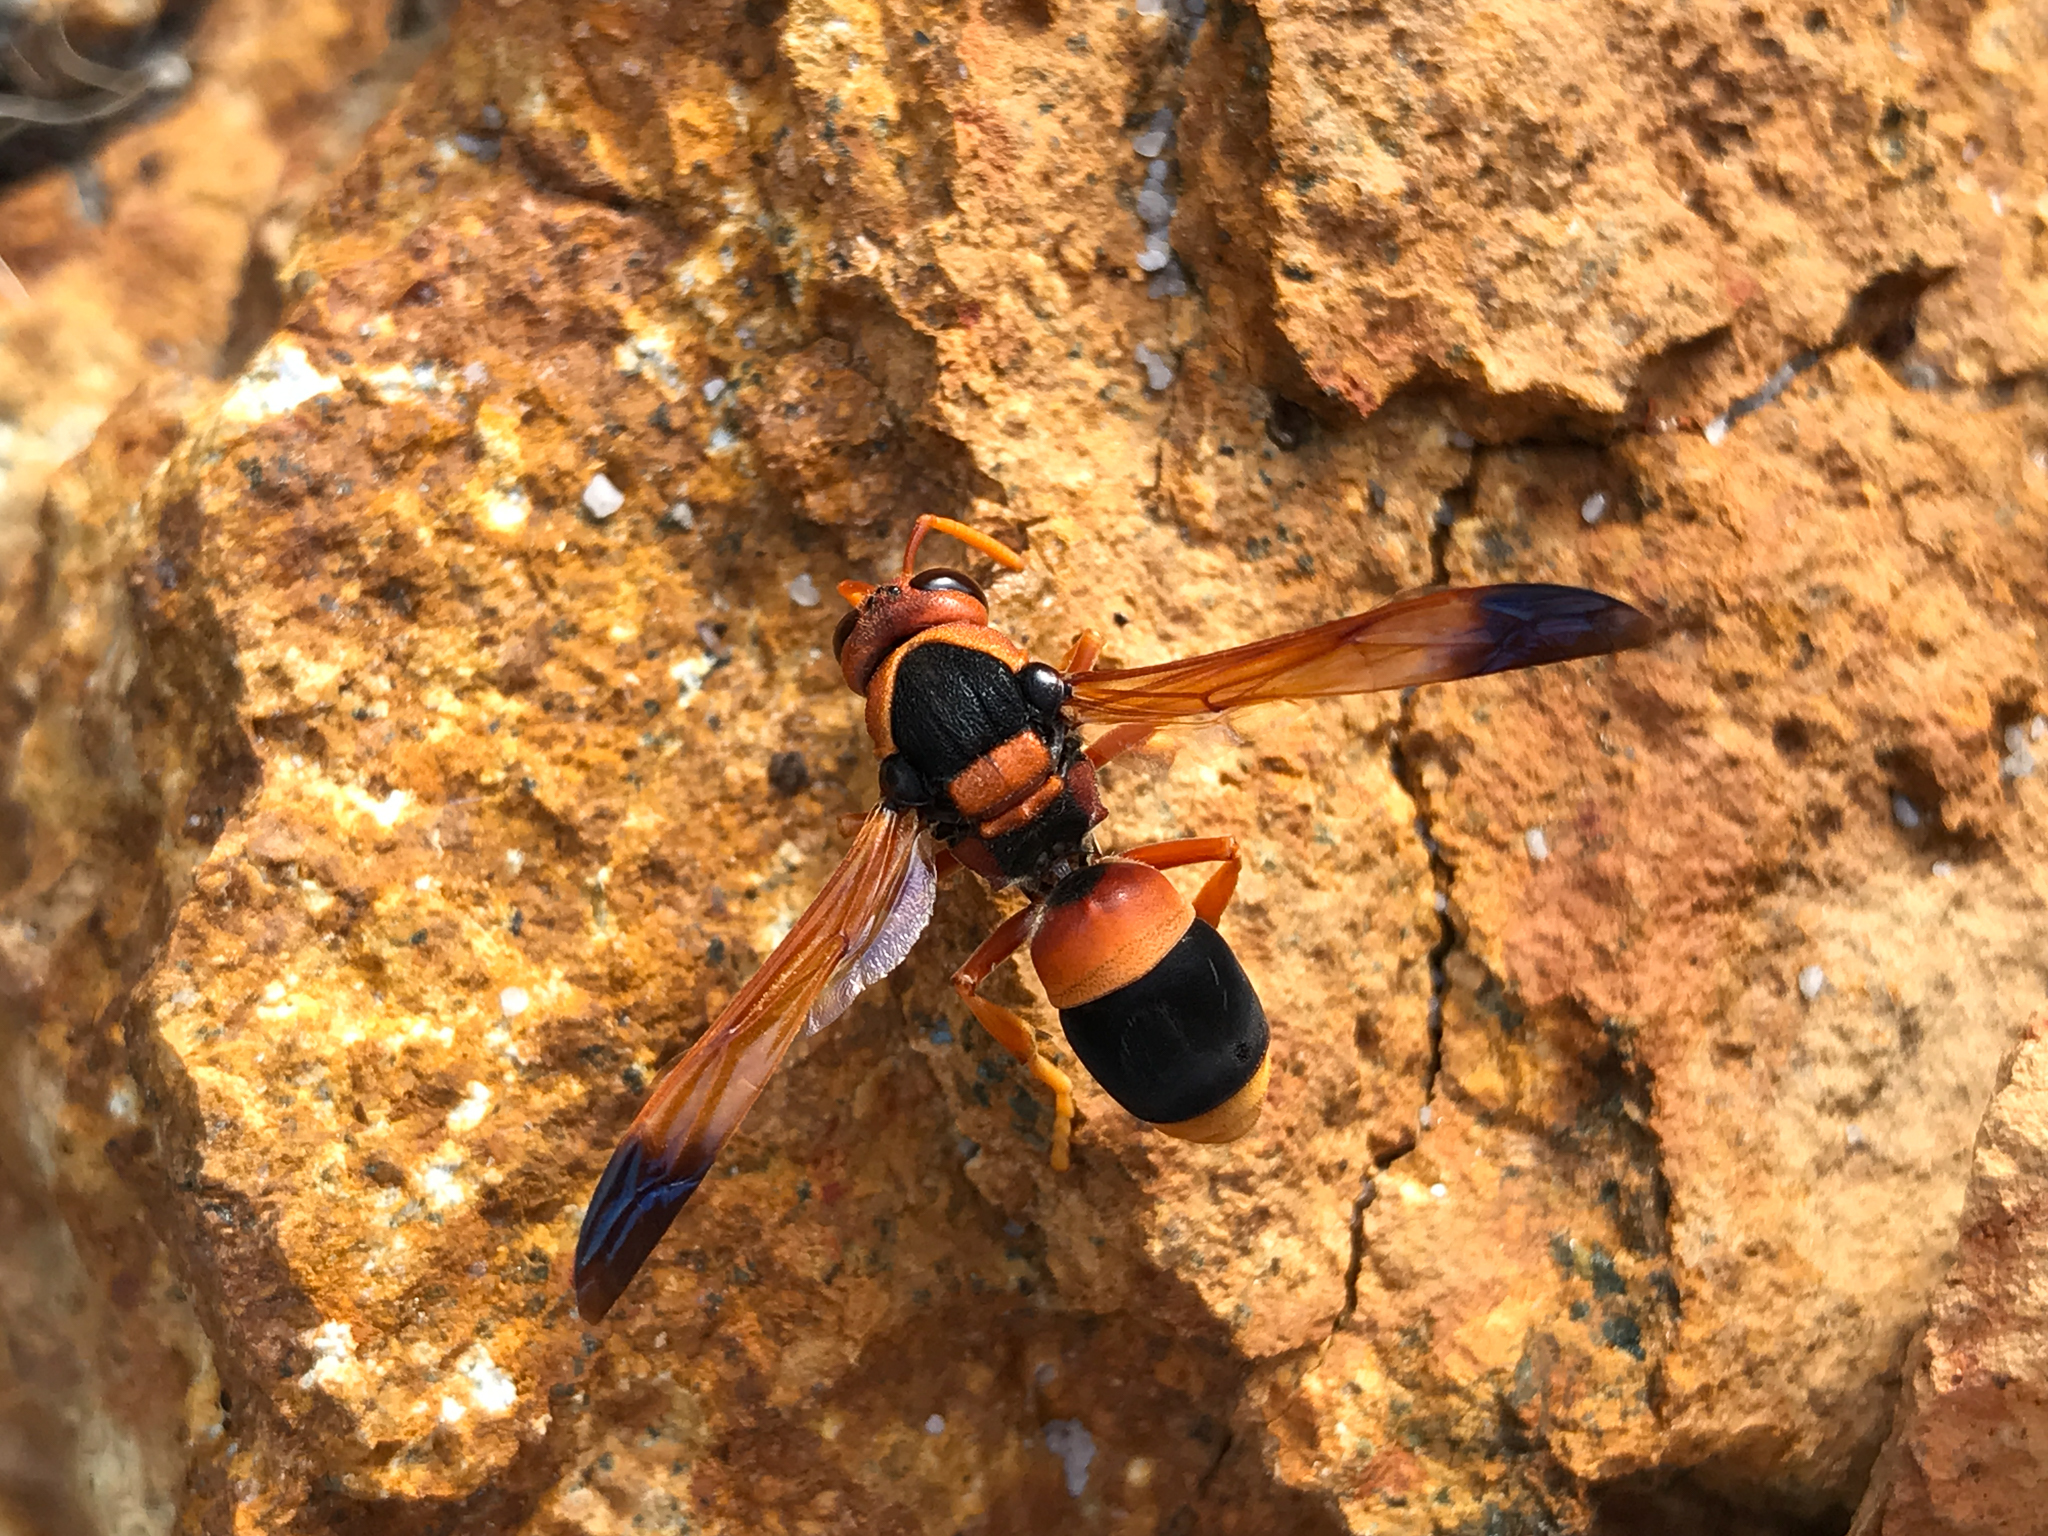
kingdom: Animalia
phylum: Arthropoda
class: Insecta
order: Hymenoptera
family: Eumenidae
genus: Abispa
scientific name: Abispa ephippium
